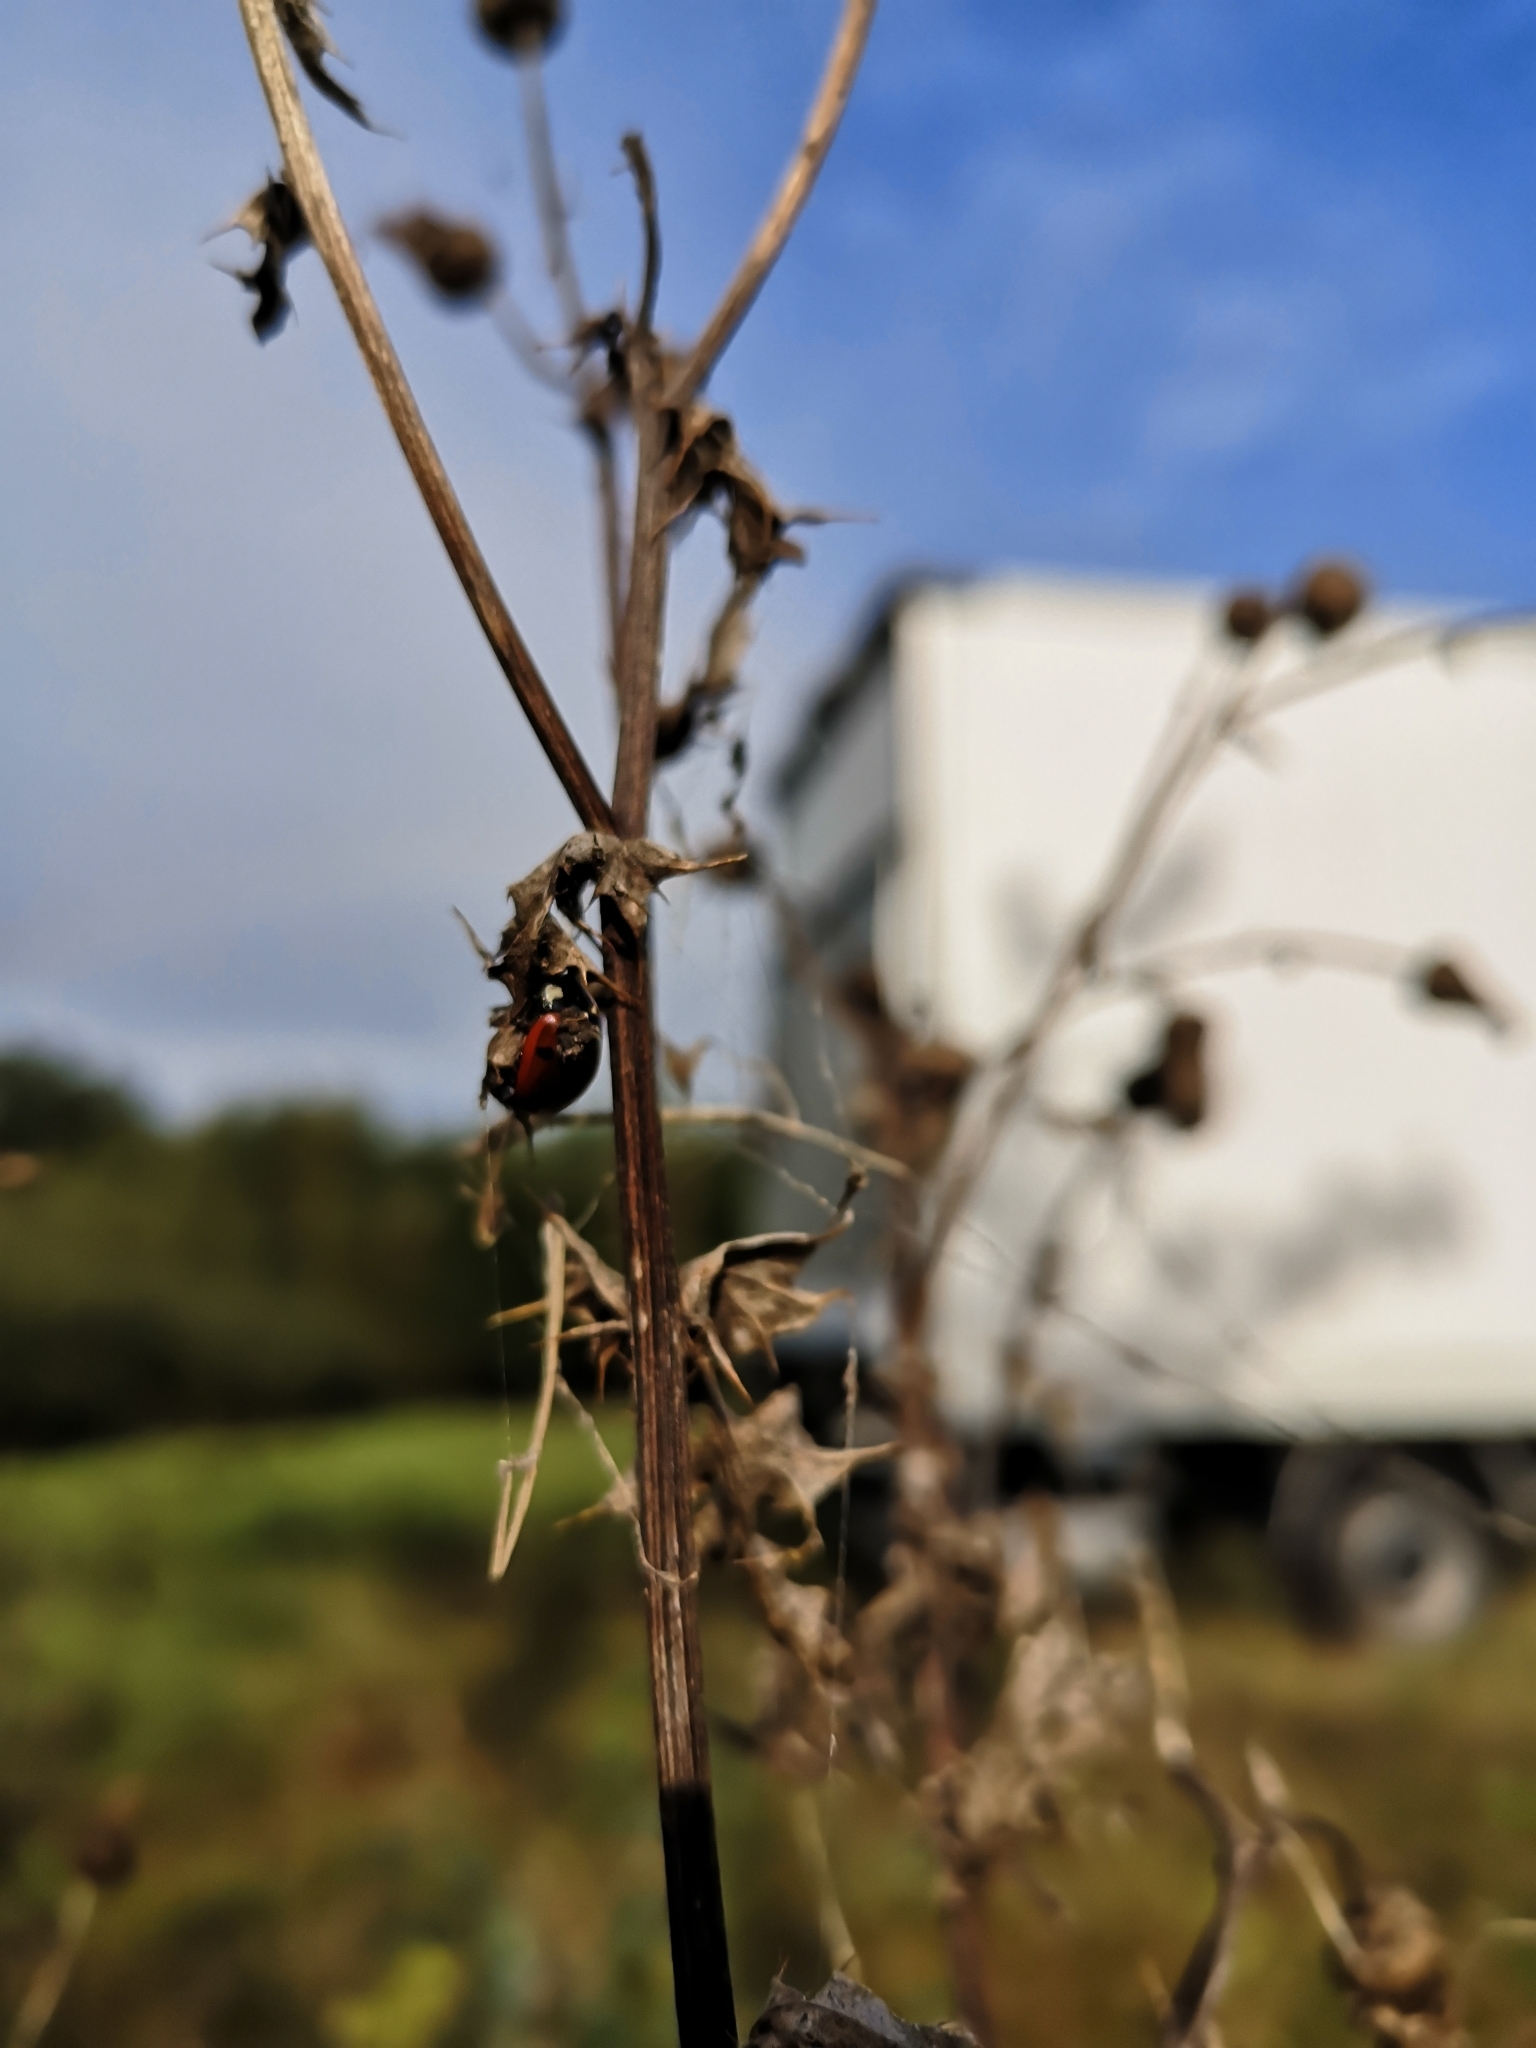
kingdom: Animalia
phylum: Arthropoda
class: Insecta
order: Coleoptera
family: Coccinellidae
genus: Coccinella
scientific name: Coccinella septempunctata
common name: Sevenspotted lady beetle
